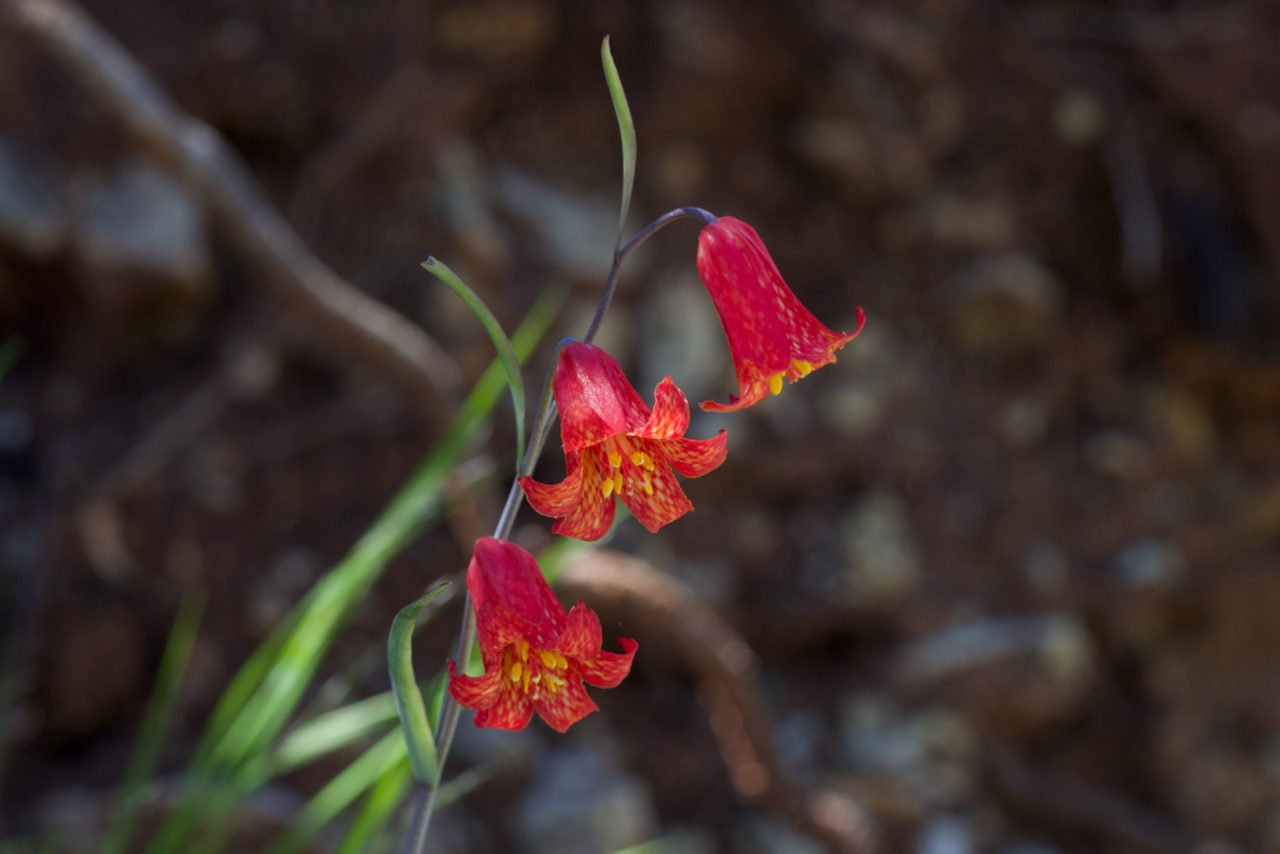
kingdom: Plantae
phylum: Tracheophyta
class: Liliopsida
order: Liliales
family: Liliaceae
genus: Fritillaria
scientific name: Fritillaria recurva
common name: Scarlet fritillary
